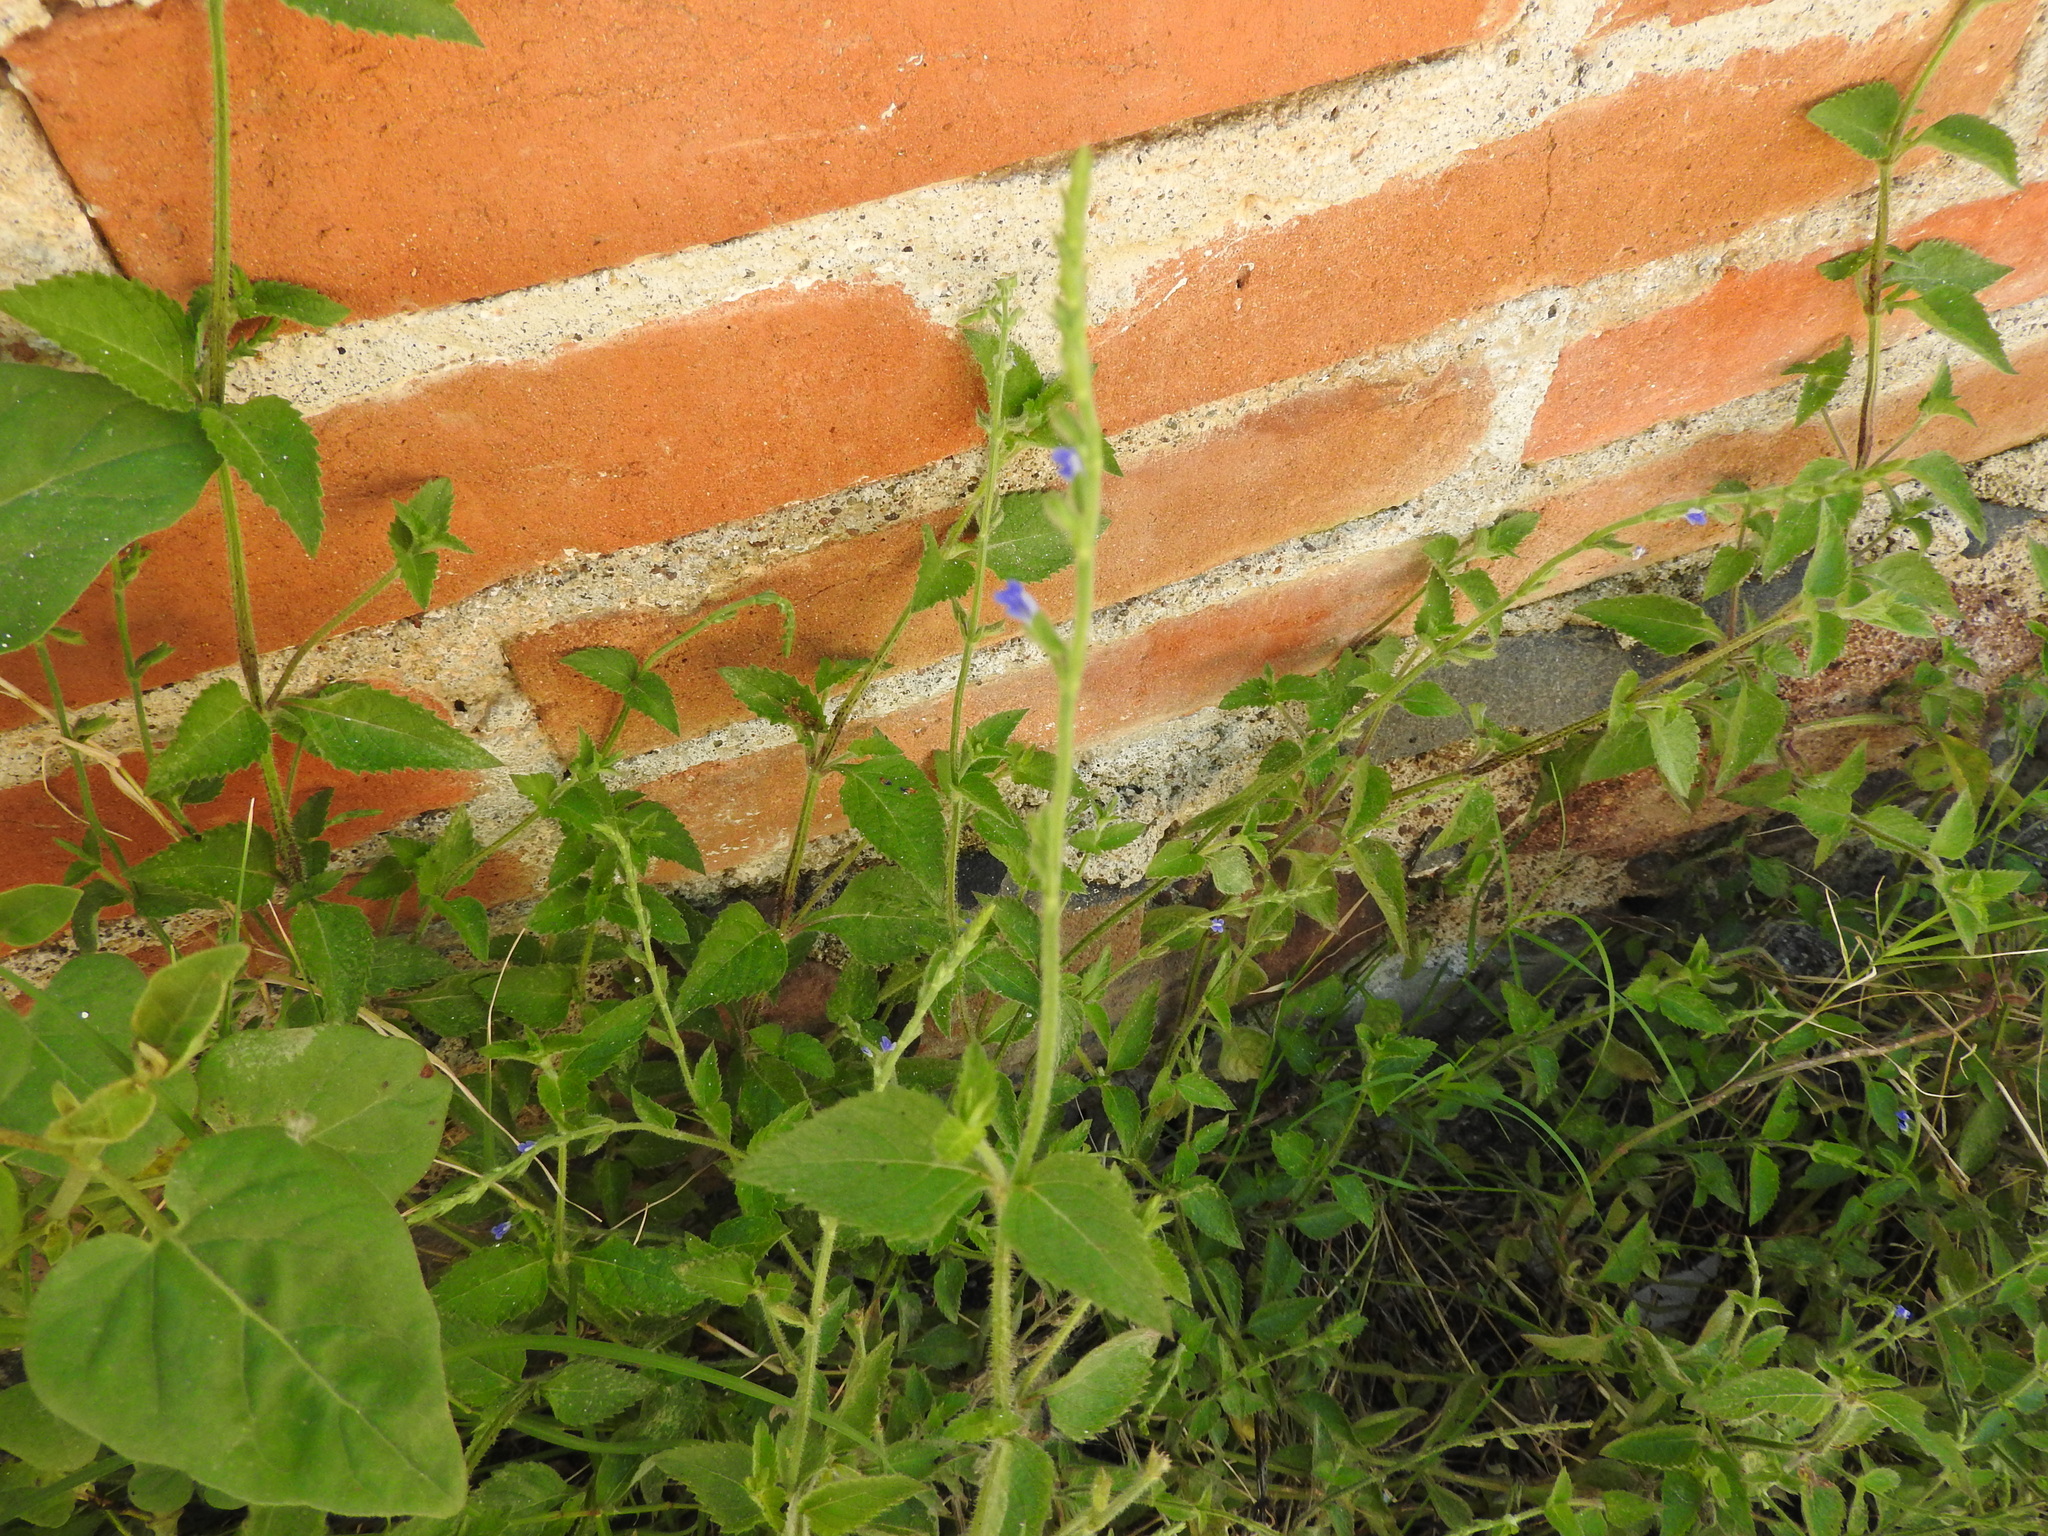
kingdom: Plantae
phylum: Tracheophyta
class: Magnoliopsida
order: Lamiales
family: Lamiaceae
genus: Salvia
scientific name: Salvia misella
